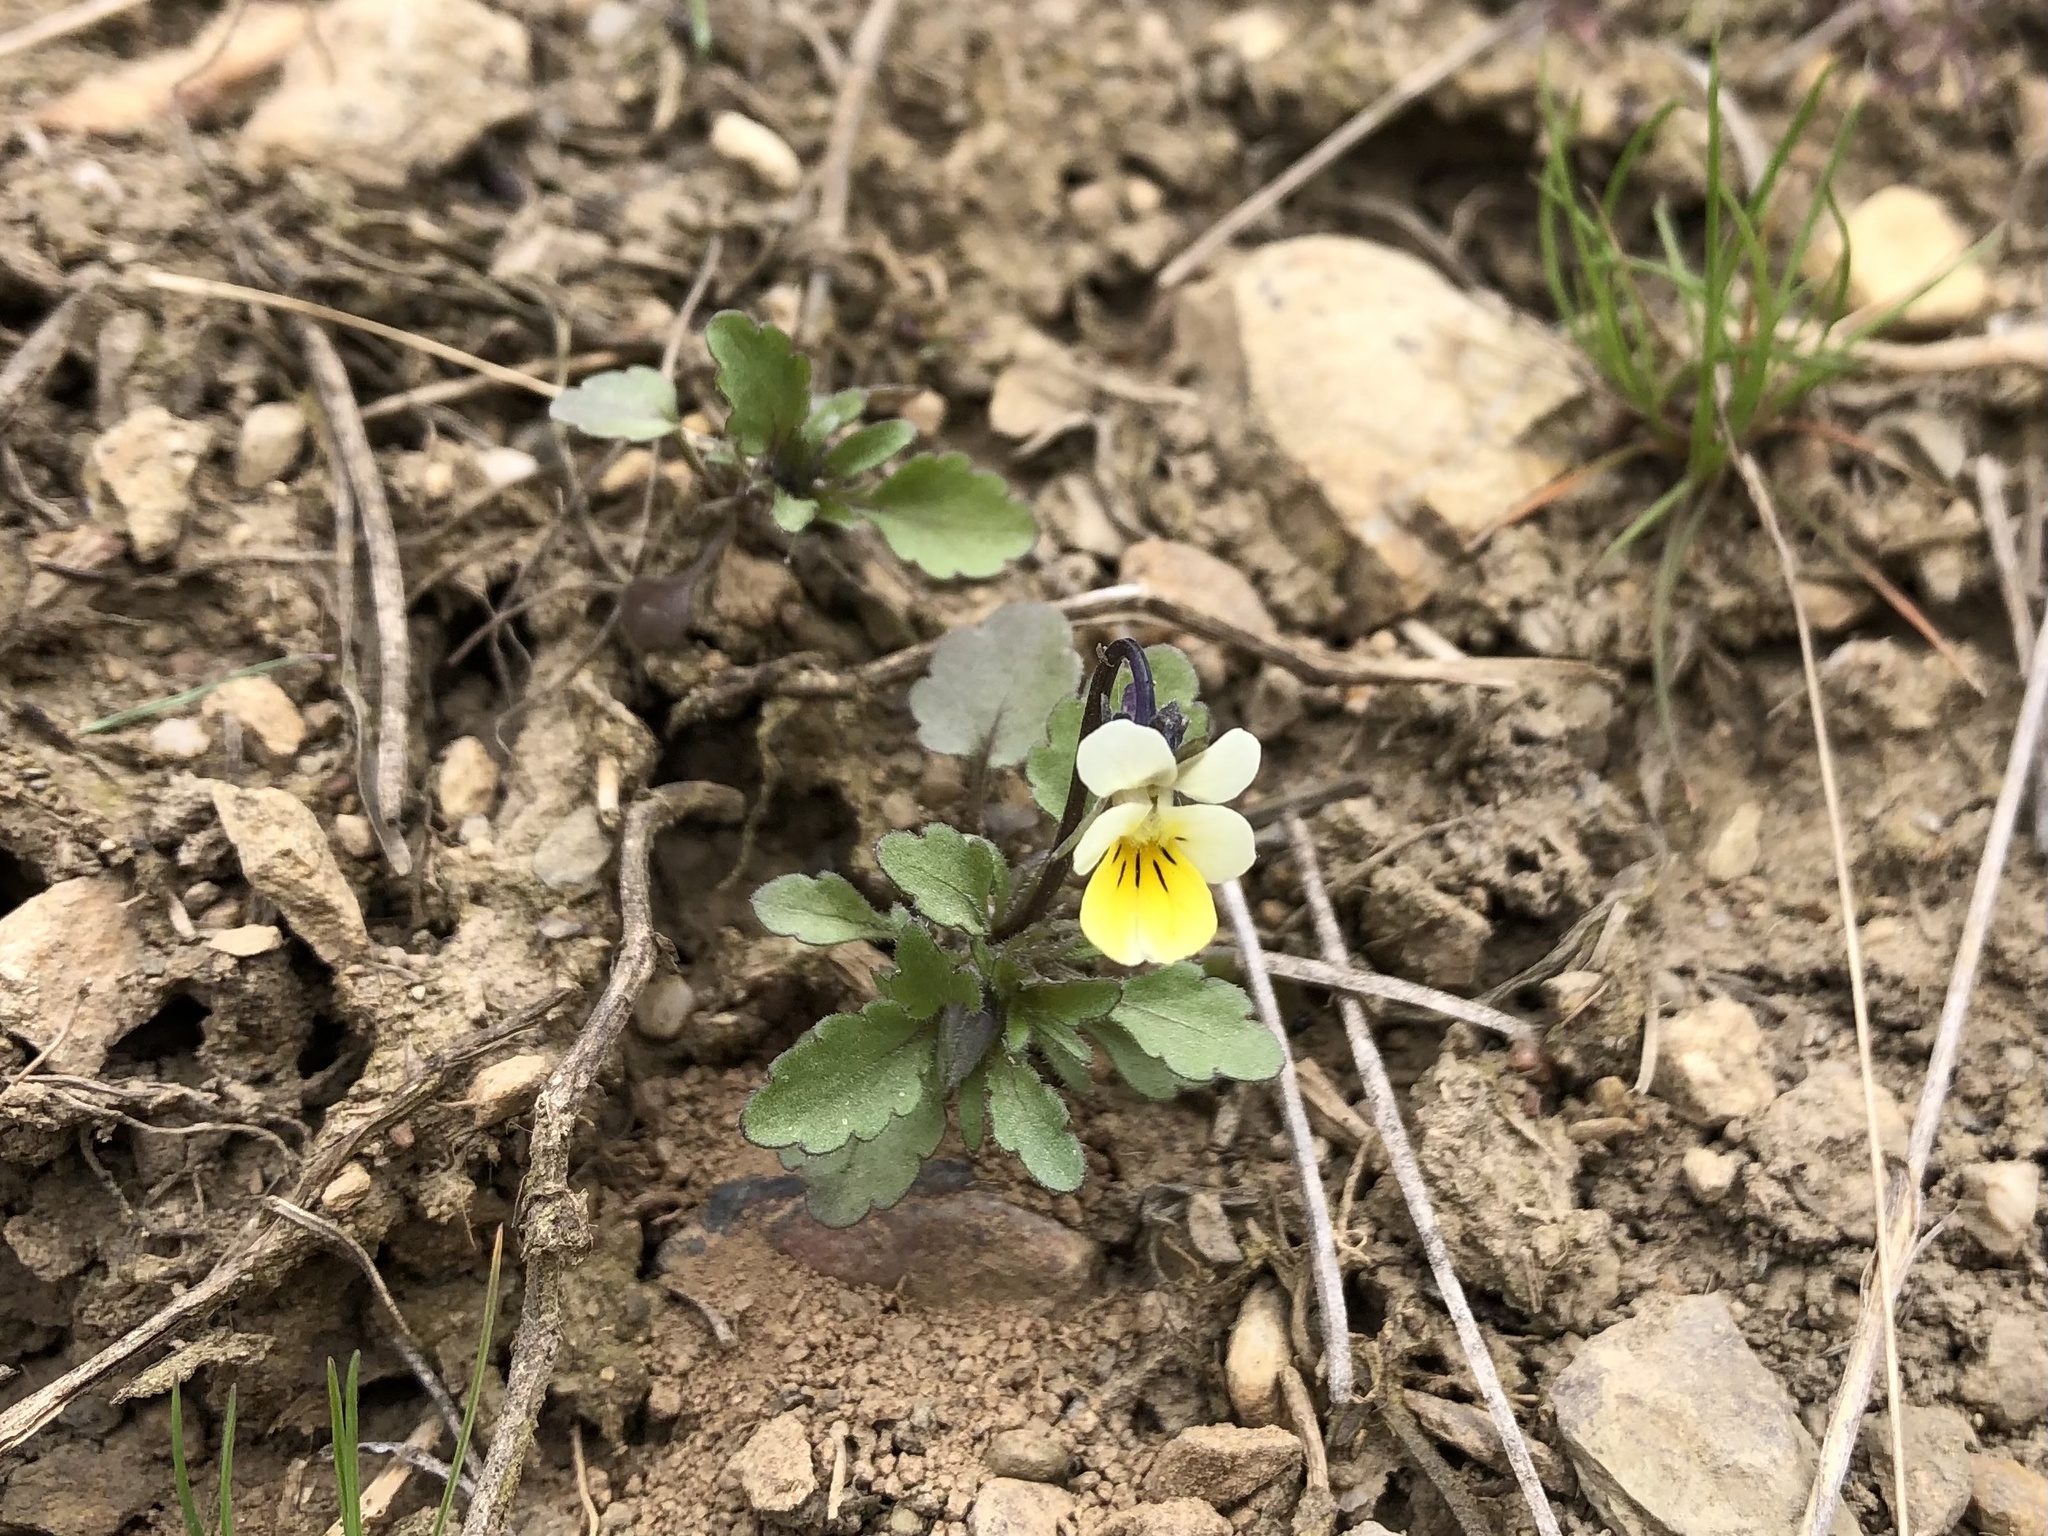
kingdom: Plantae
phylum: Tracheophyta
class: Magnoliopsida
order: Malpighiales
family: Violaceae
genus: Viola
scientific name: Viola arvensis
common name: Field pansy
